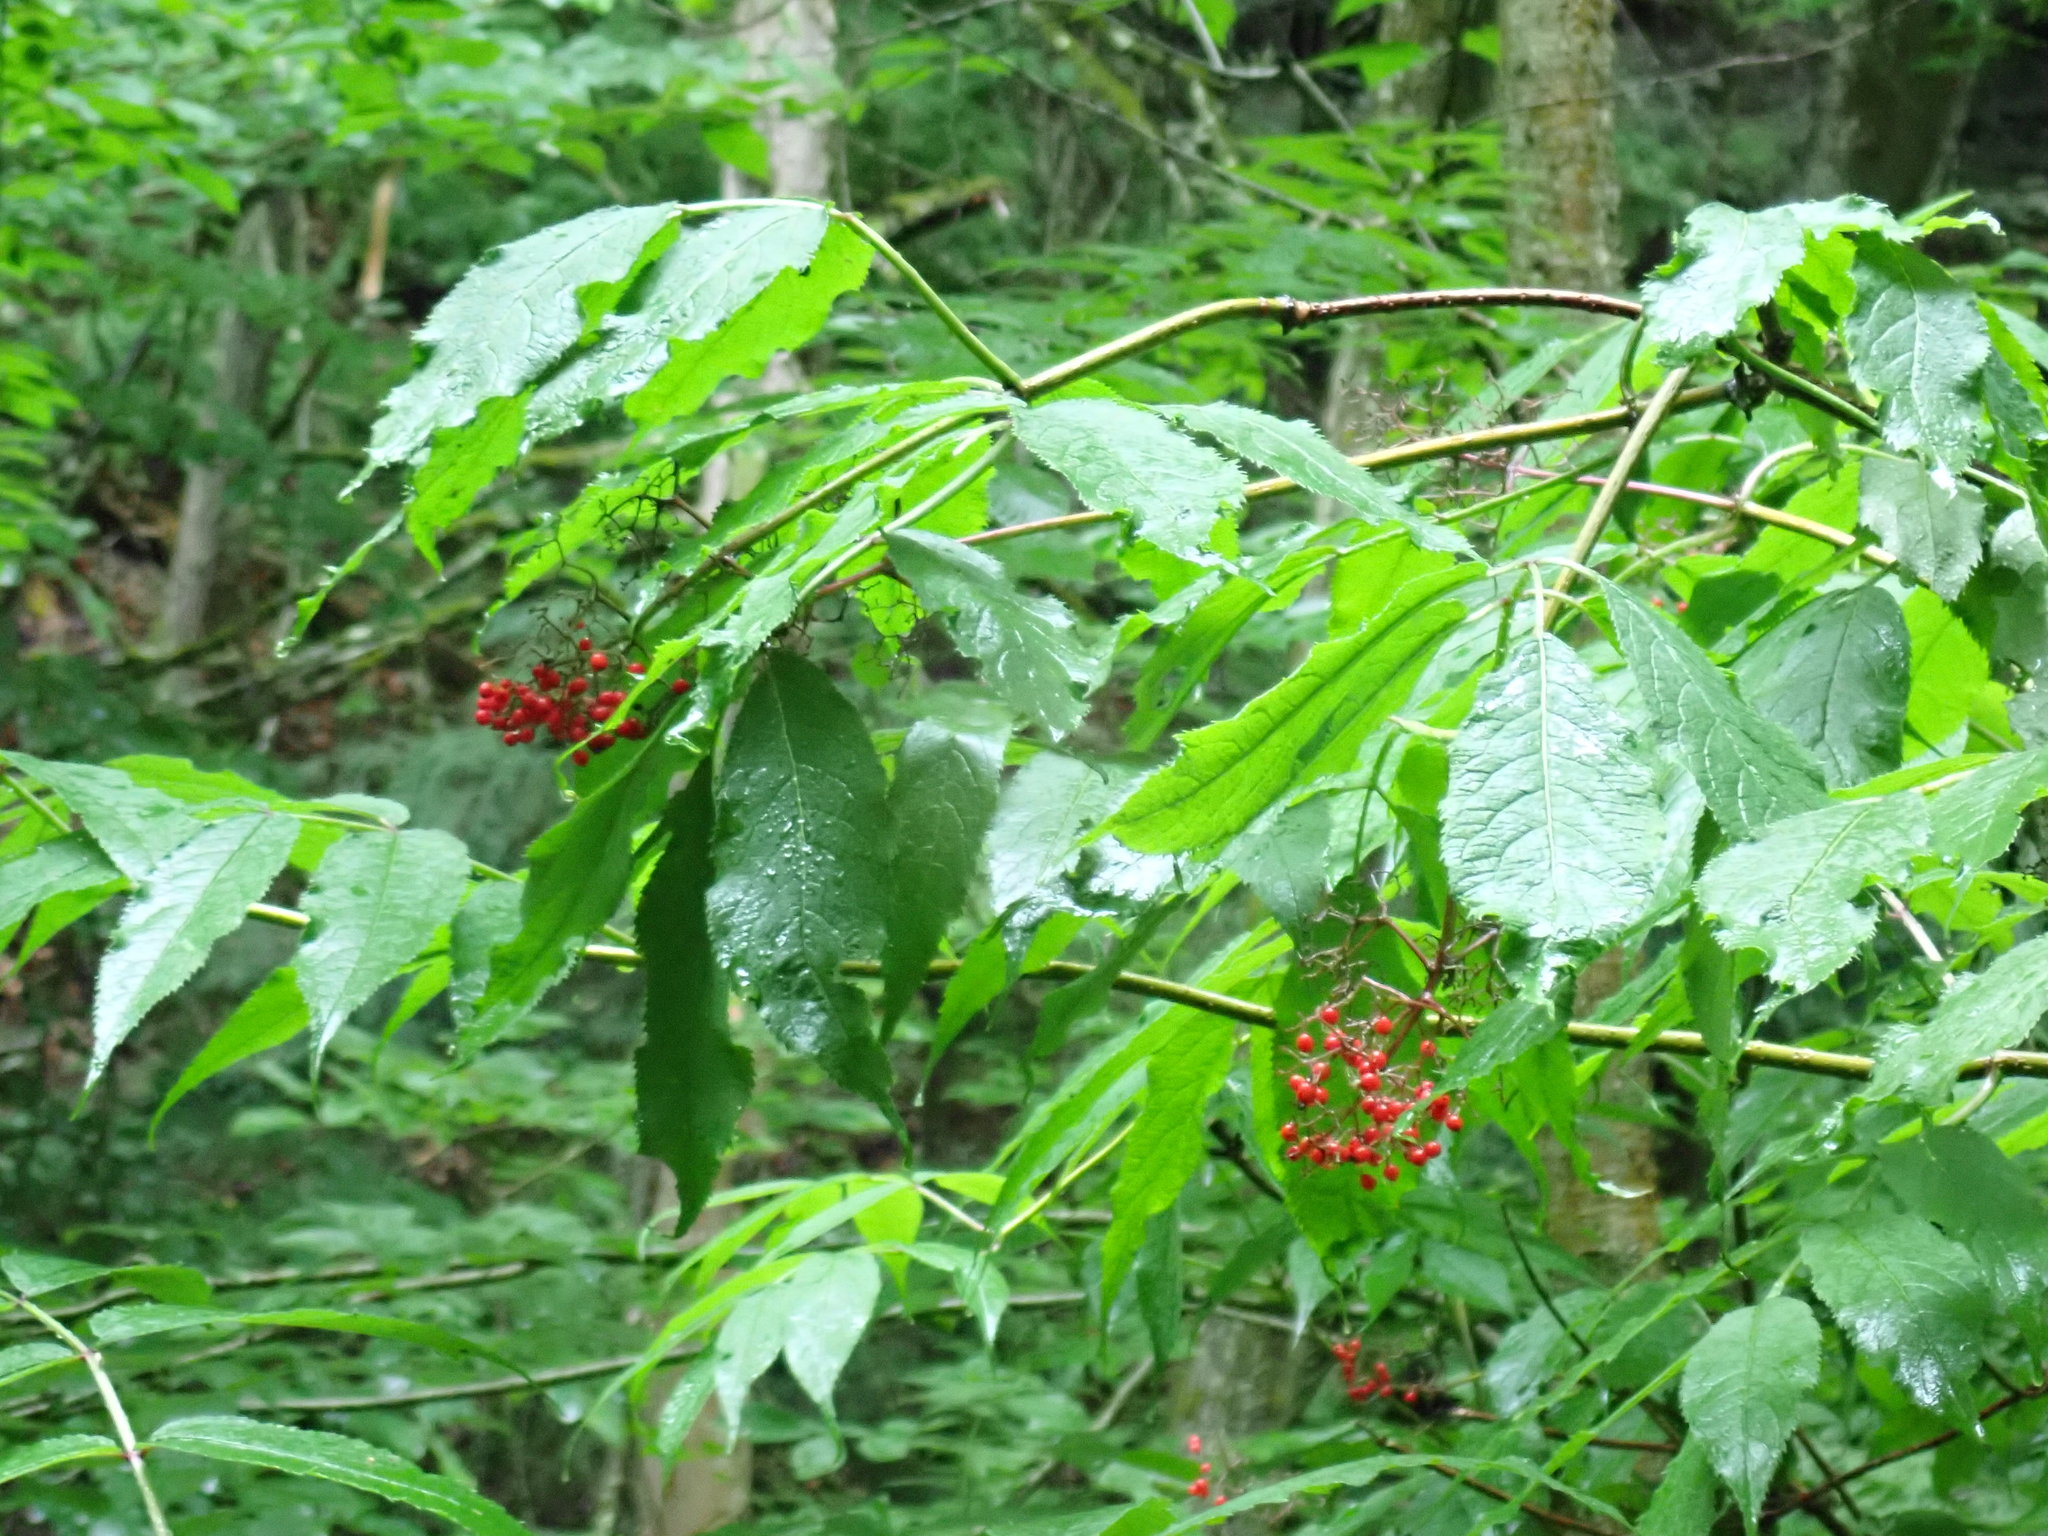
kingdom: Plantae
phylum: Tracheophyta
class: Magnoliopsida
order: Dipsacales
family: Viburnaceae
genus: Sambucus
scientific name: Sambucus racemosa
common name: Red-berried elder
